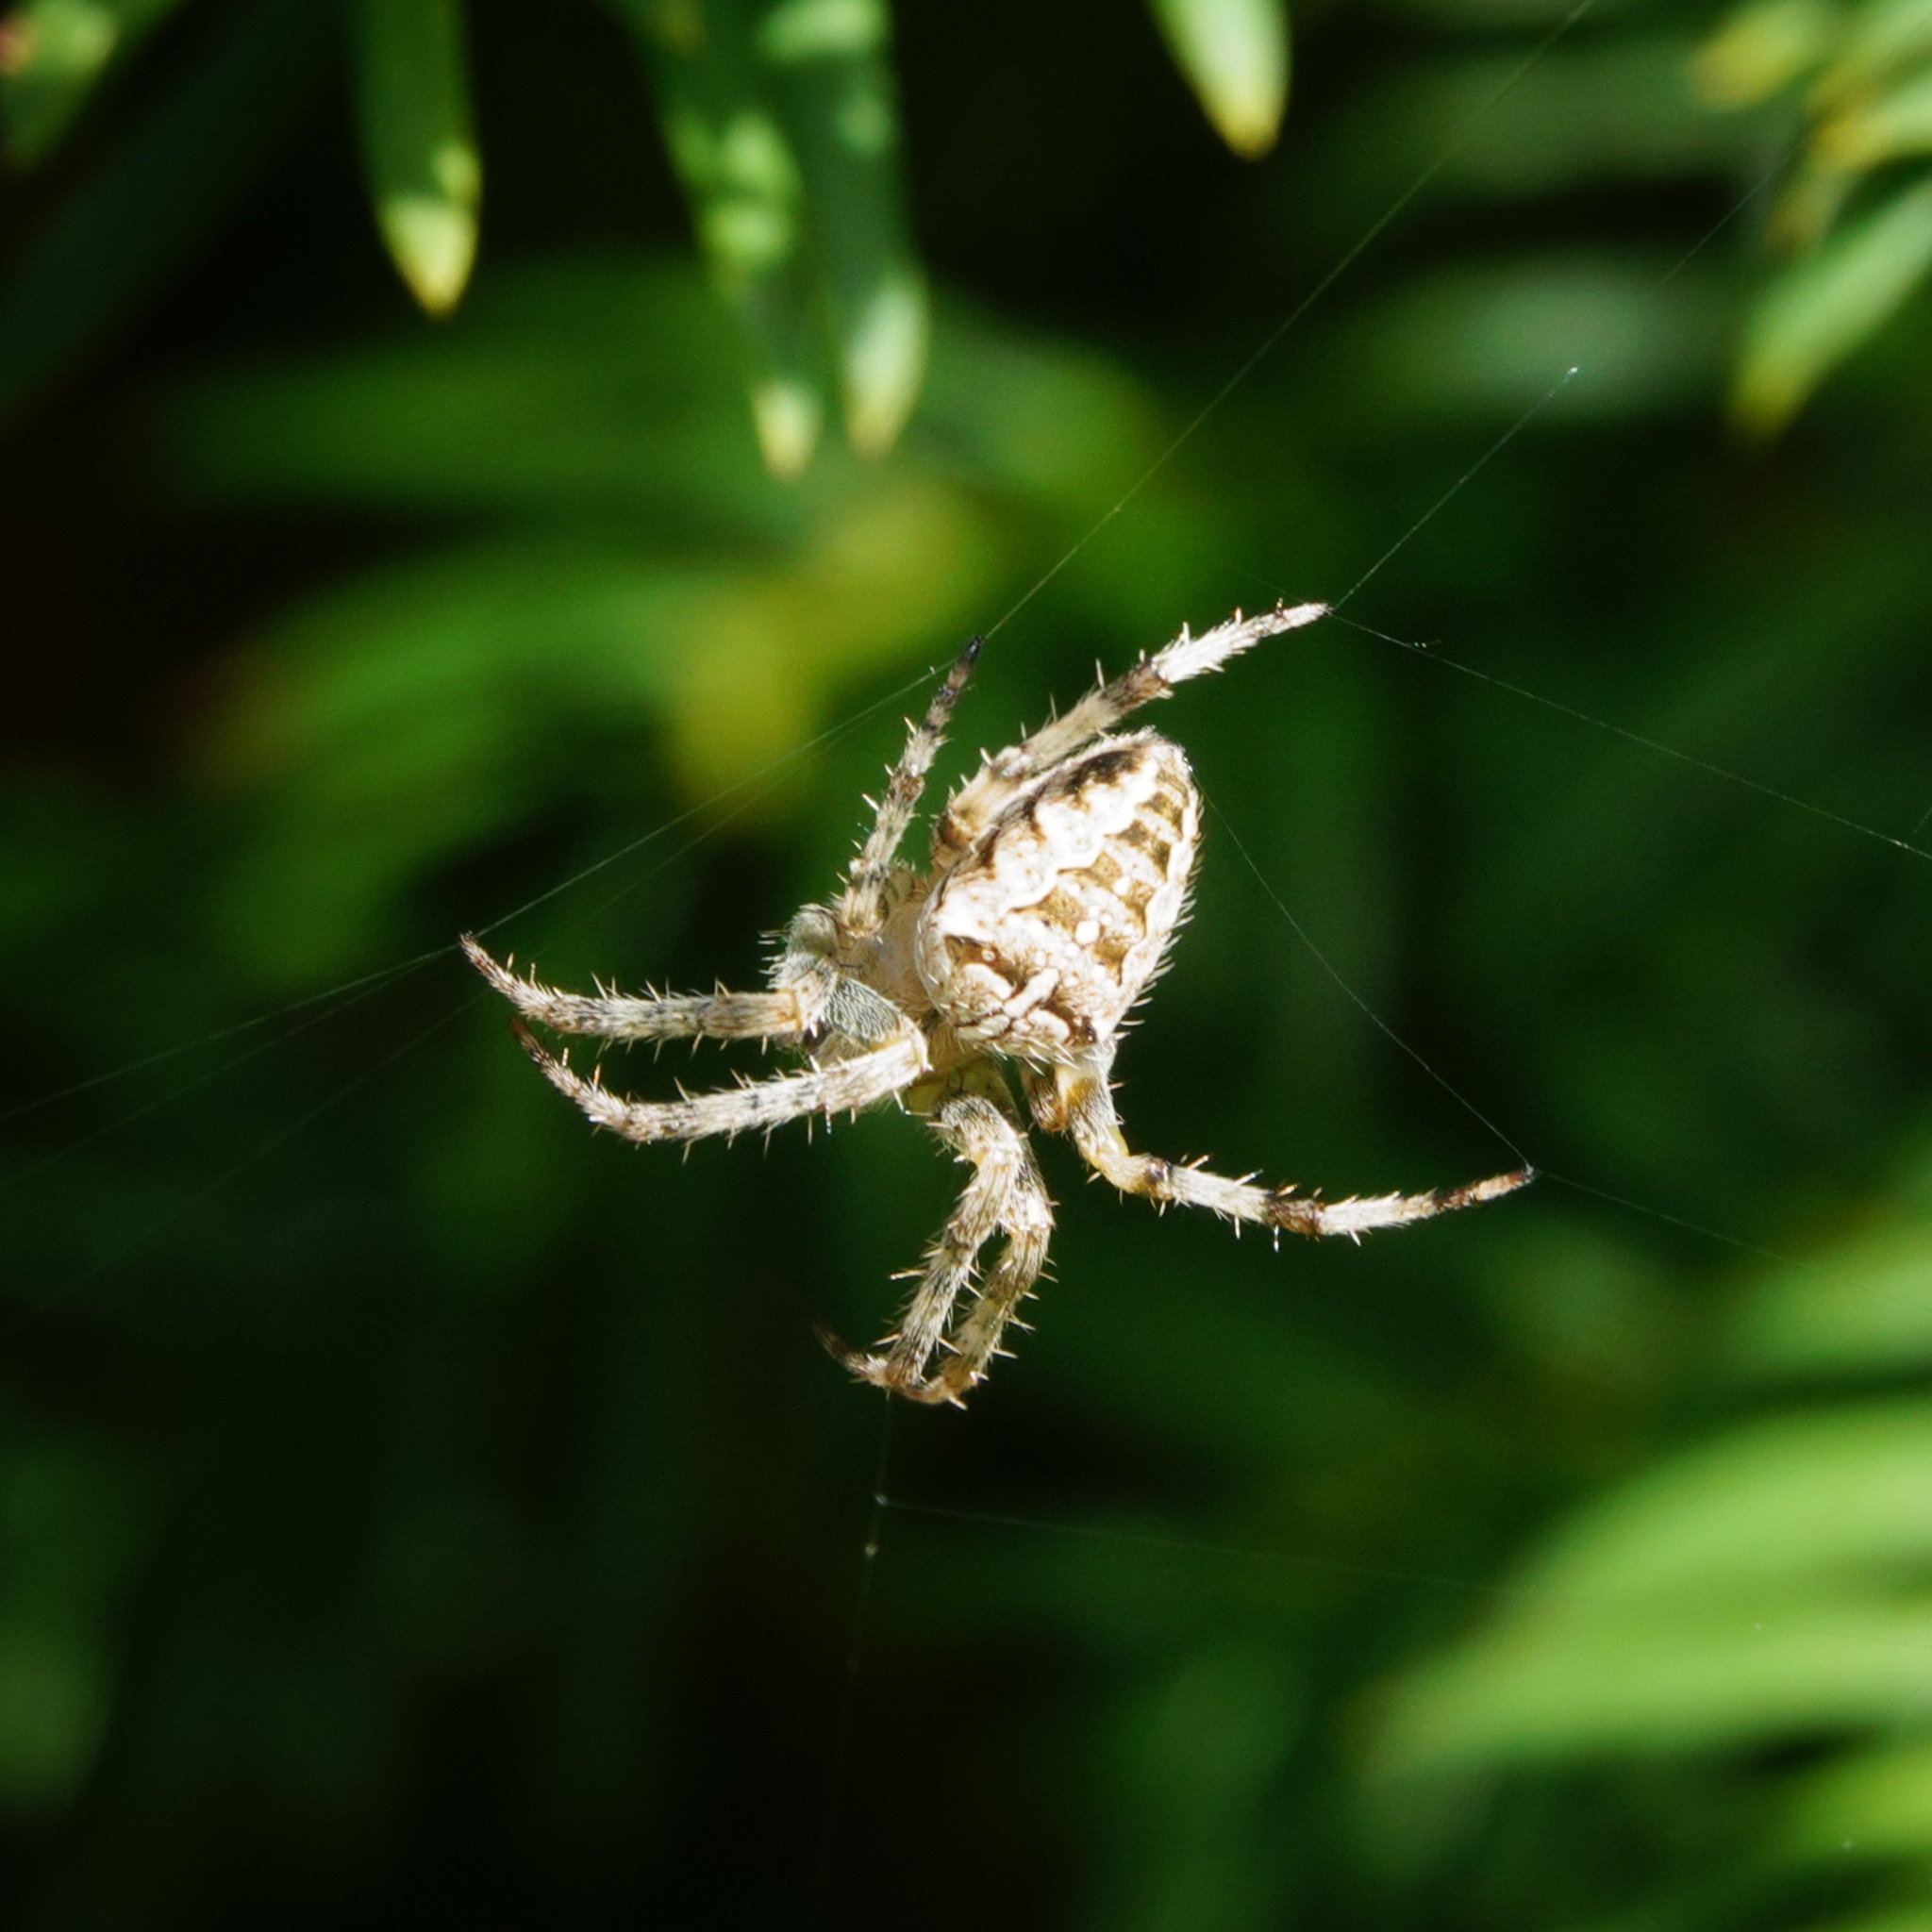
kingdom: Animalia
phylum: Arthropoda
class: Arachnida
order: Araneae
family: Araneidae
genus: Araneus
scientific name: Araneus diadematus
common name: Cross orbweaver
